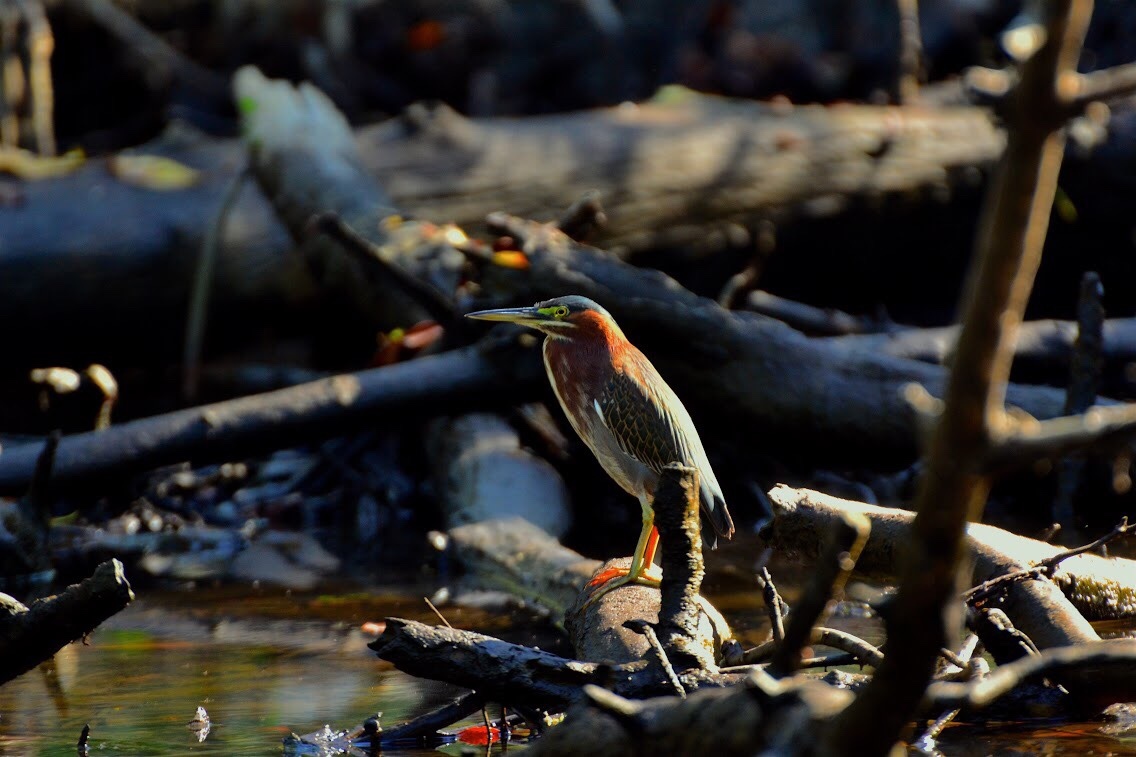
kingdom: Animalia
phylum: Chordata
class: Aves
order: Pelecaniformes
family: Ardeidae
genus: Butorides
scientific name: Butorides virescens
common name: Green heron
